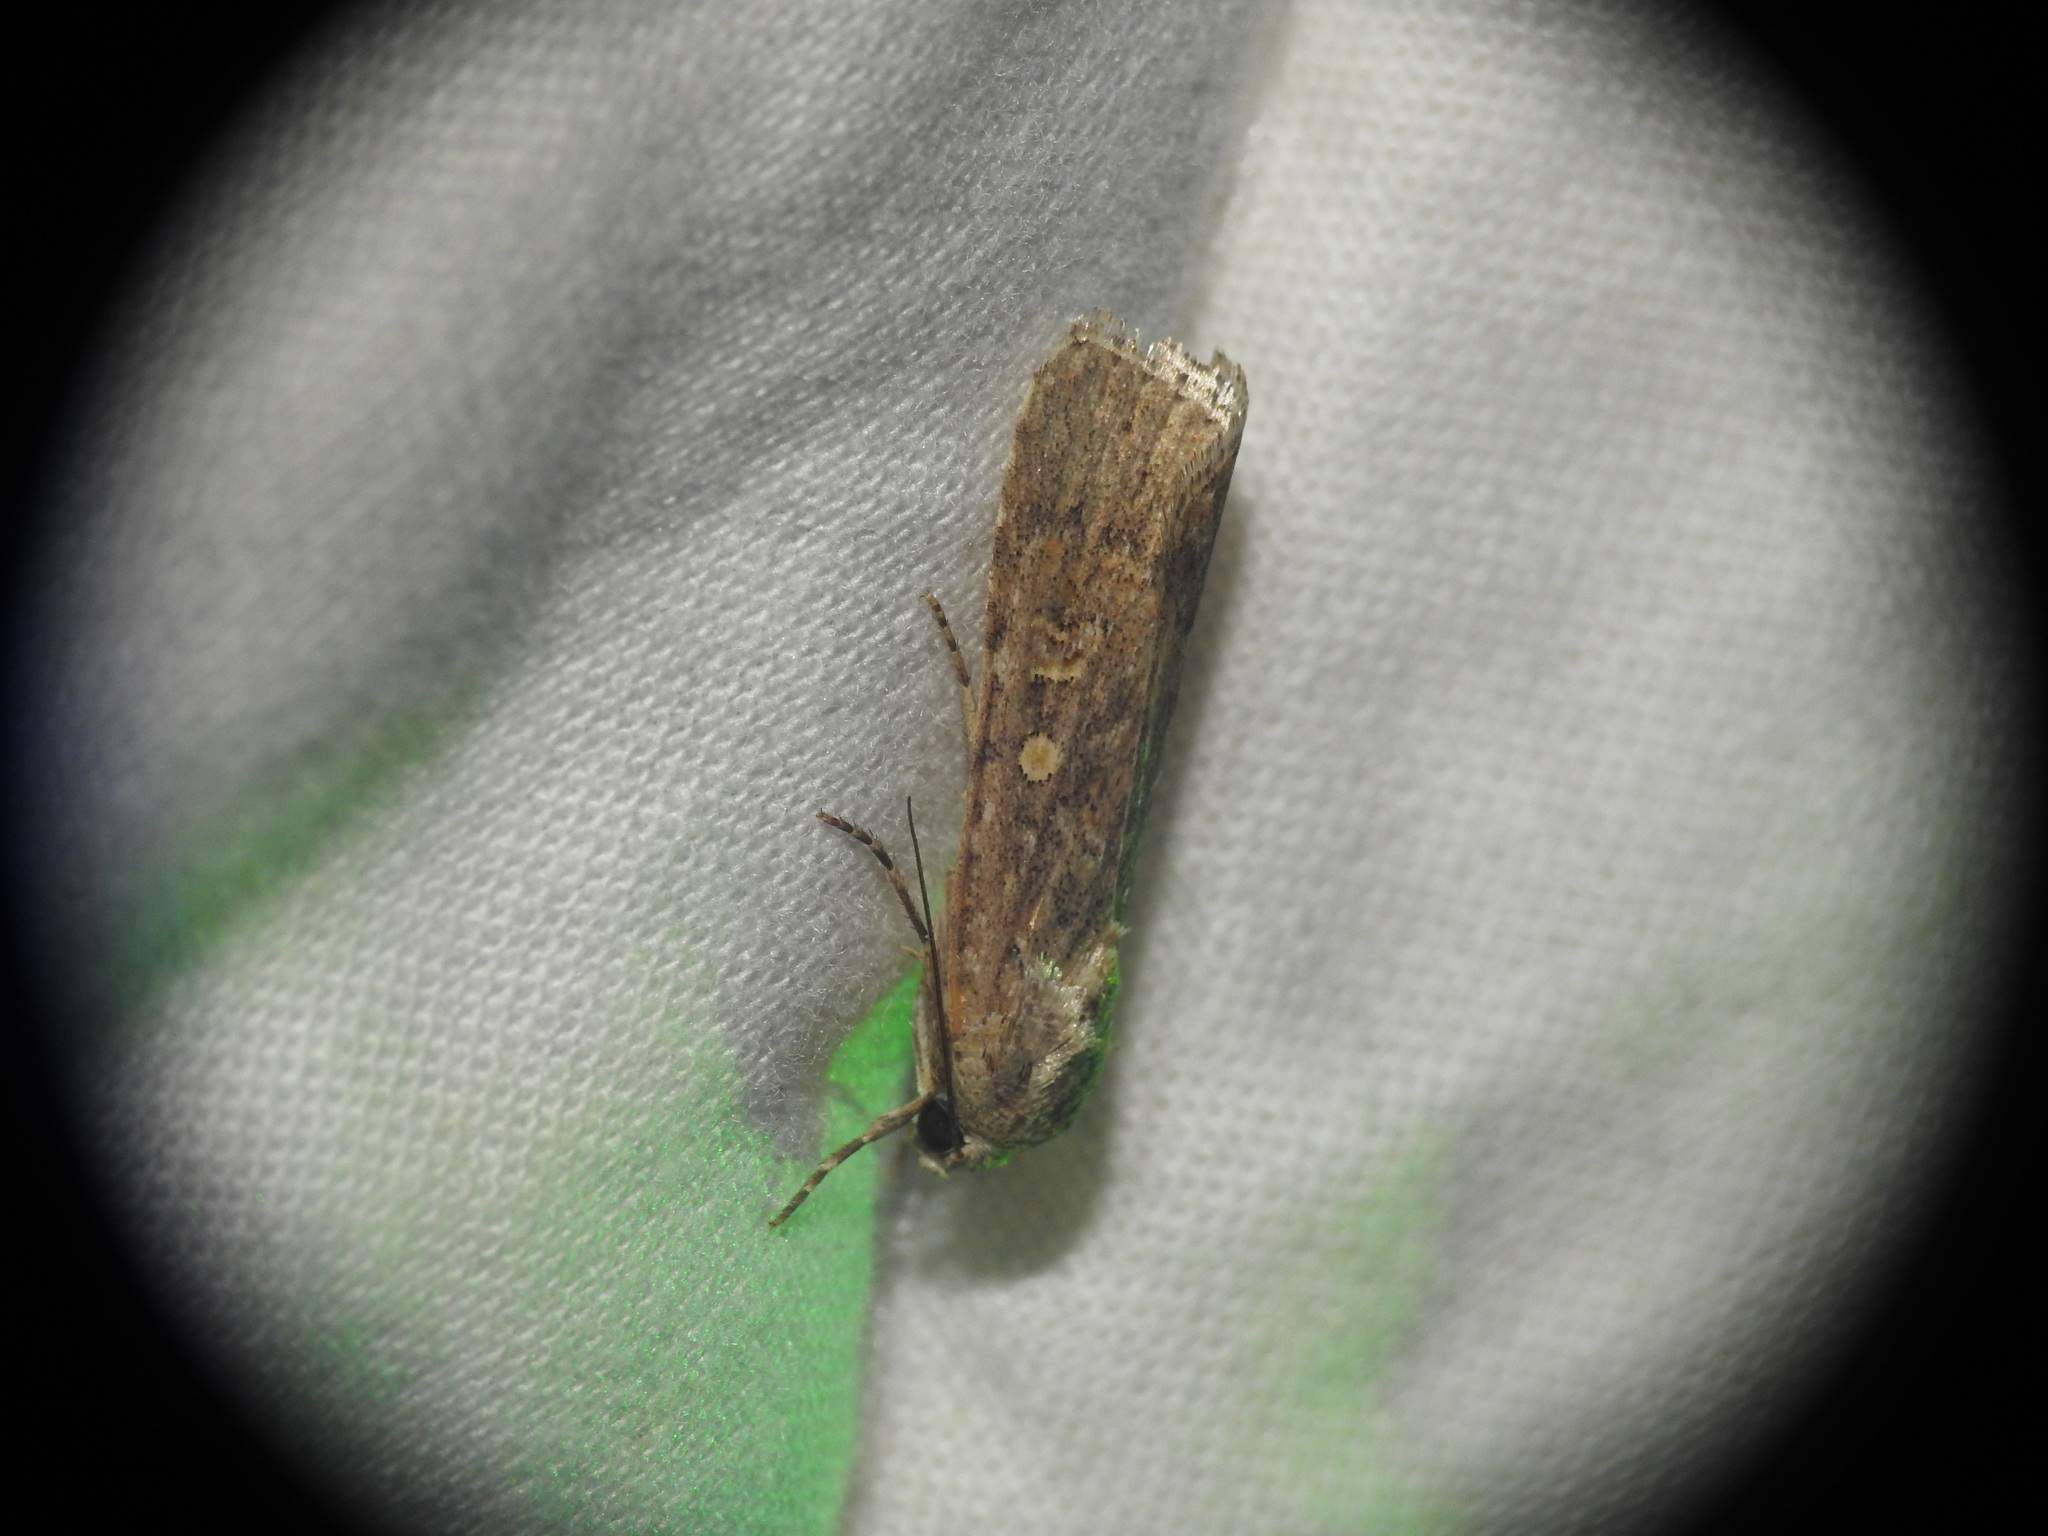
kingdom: Animalia
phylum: Arthropoda
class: Insecta
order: Lepidoptera
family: Noctuidae
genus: Spodoptera
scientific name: Spodoptera exigua
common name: Beet armyworm
